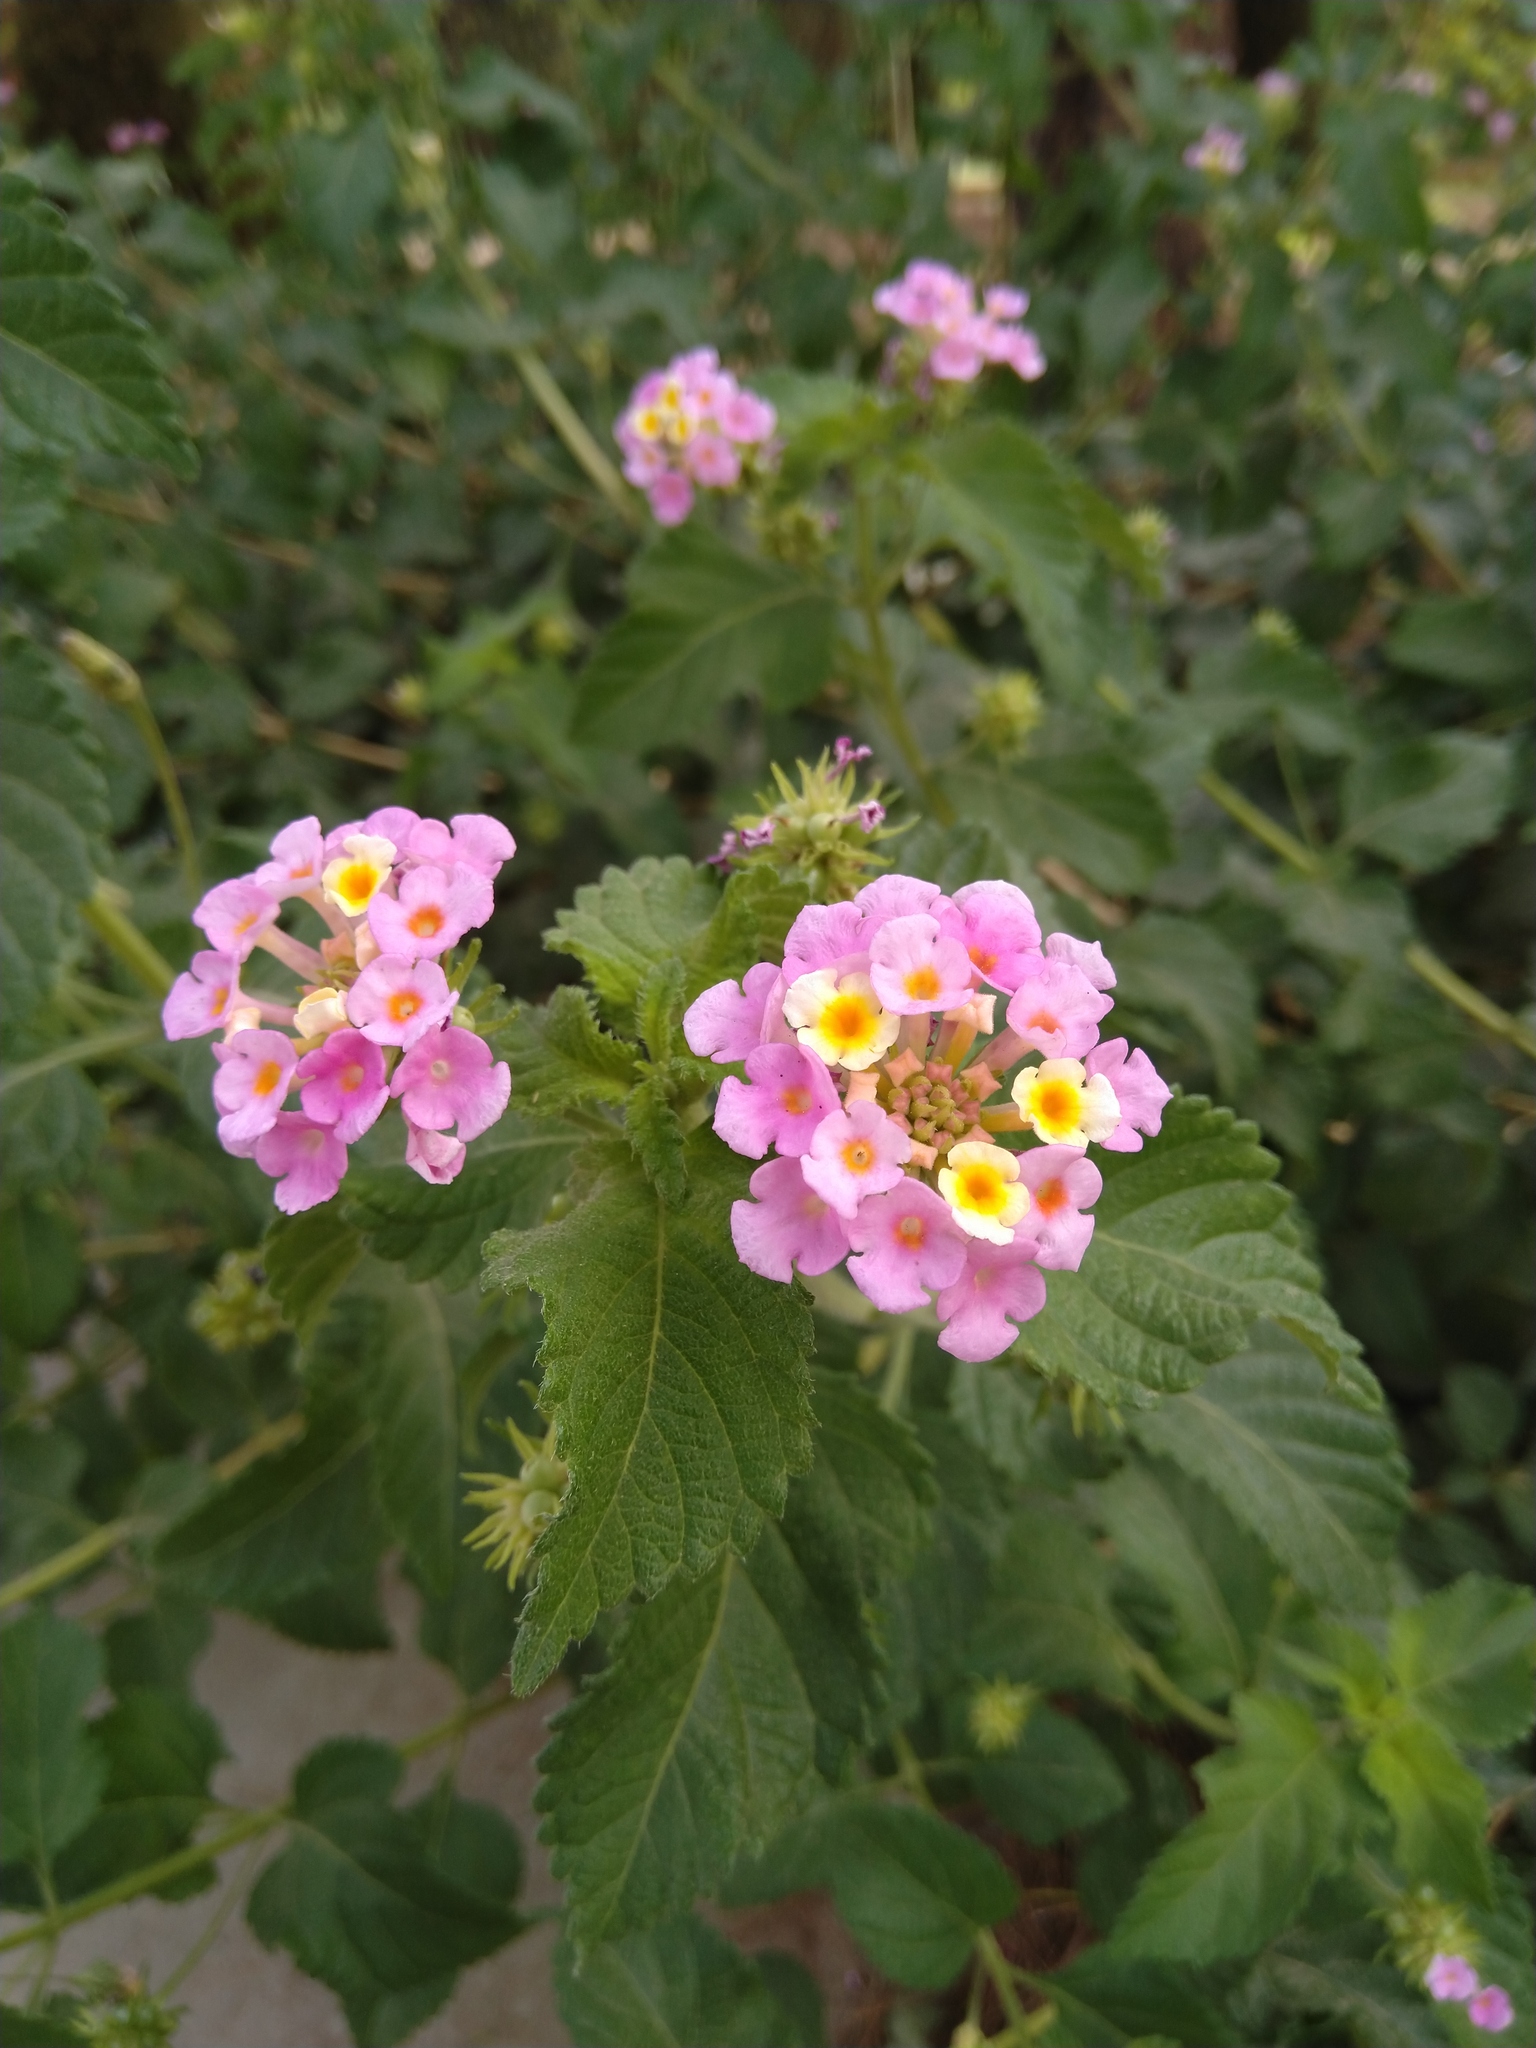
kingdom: Plantae
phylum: Tracheophyta
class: Magnoliopsida
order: Lamiales
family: Verbenaceae
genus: Lantana
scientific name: Lantana camara
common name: Lantana
